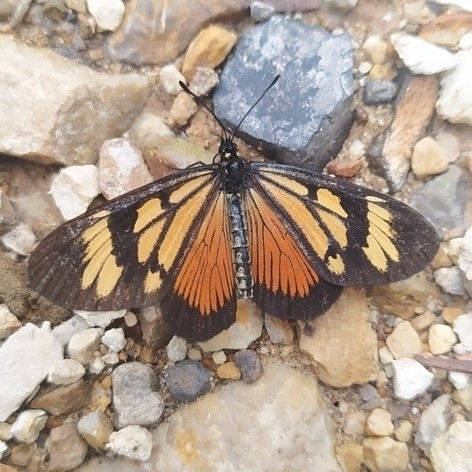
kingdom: Animalia
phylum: Arthropoda
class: Insecta
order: Lepidoptera
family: Nymphalidae
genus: Actinote
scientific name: Actinote anteas
